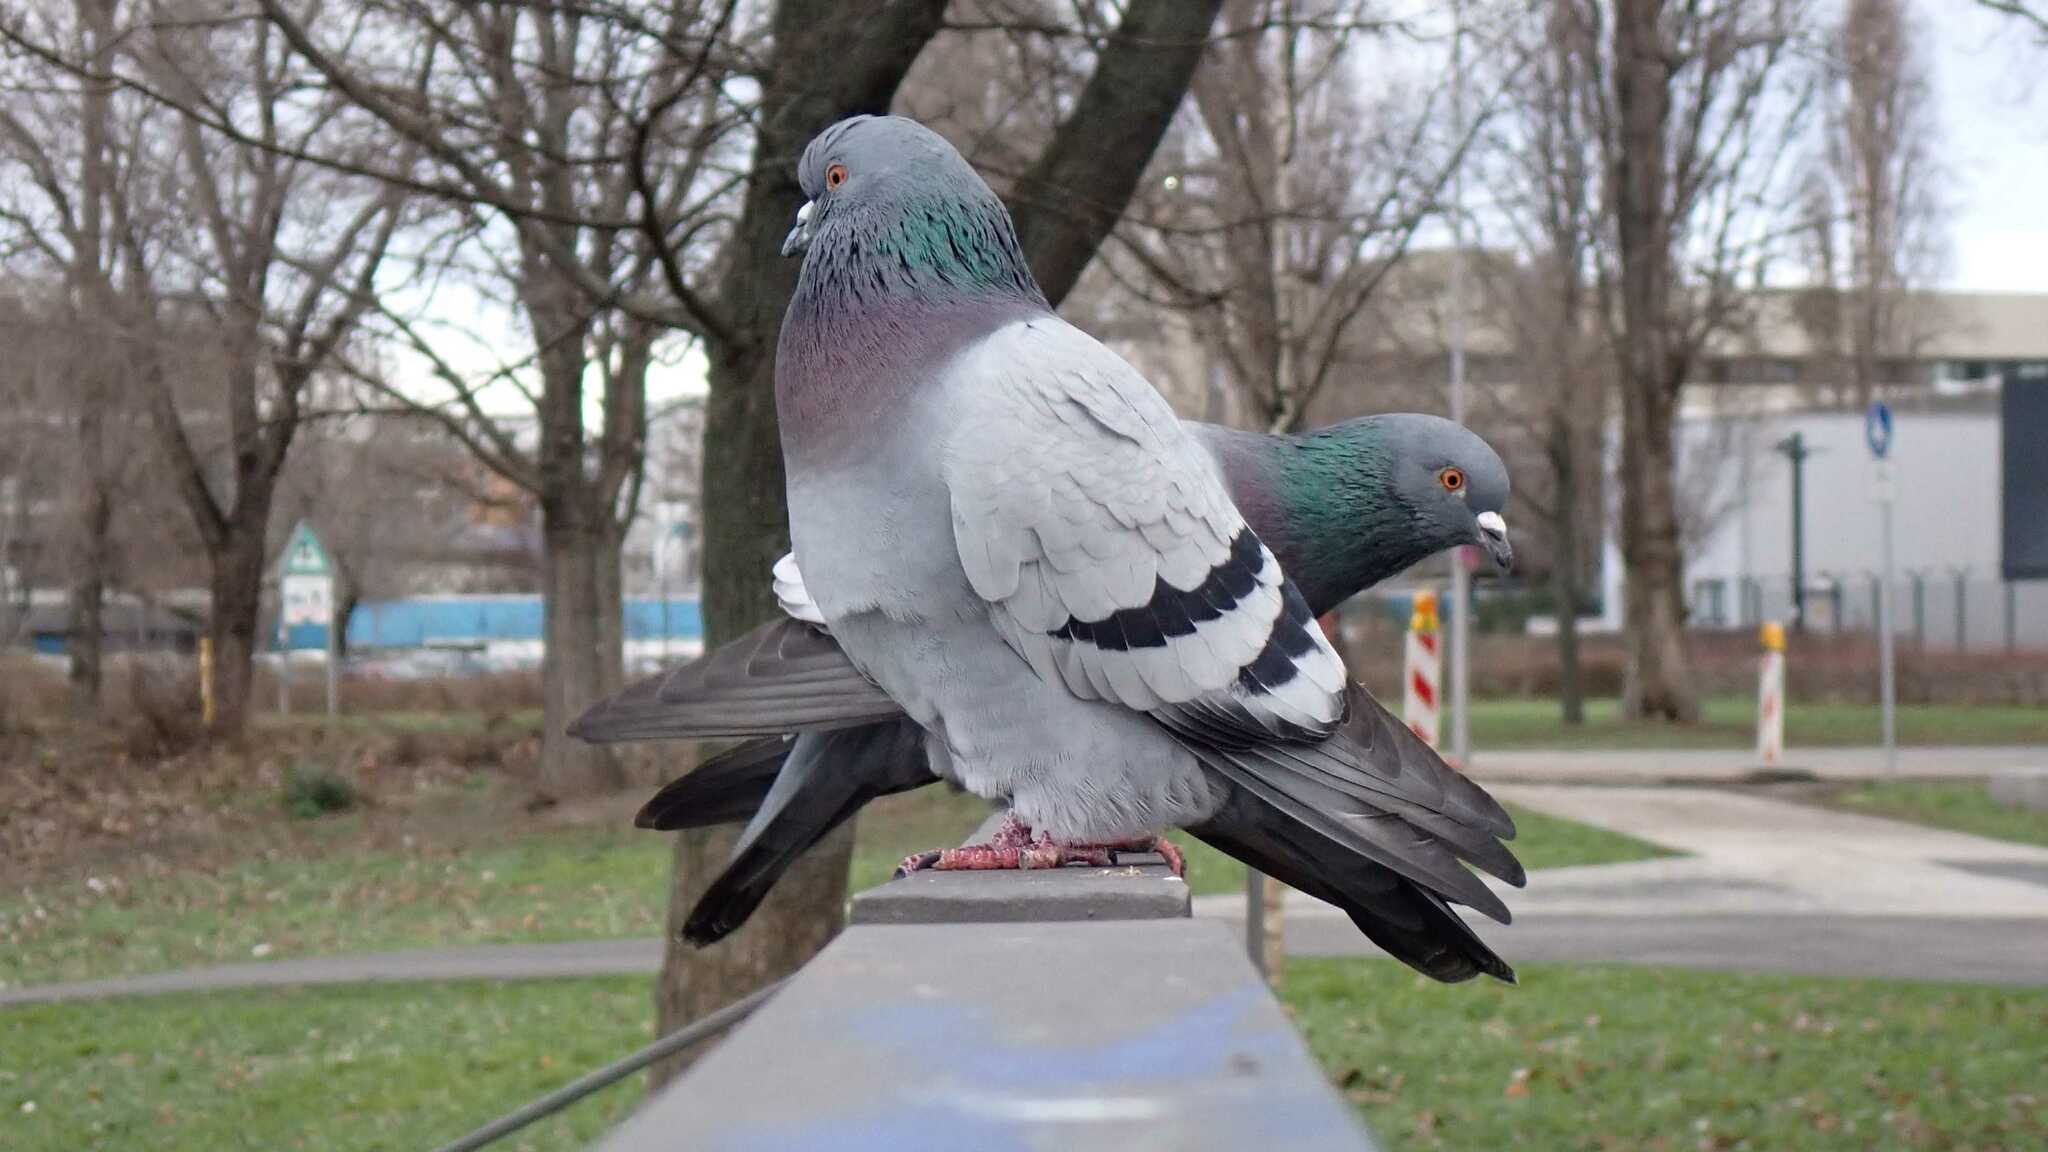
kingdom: Animalia
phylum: Chordata
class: Aves
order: Columbiformes
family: Columbidae
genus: Columba
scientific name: Columba livia
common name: Rock pigeon
